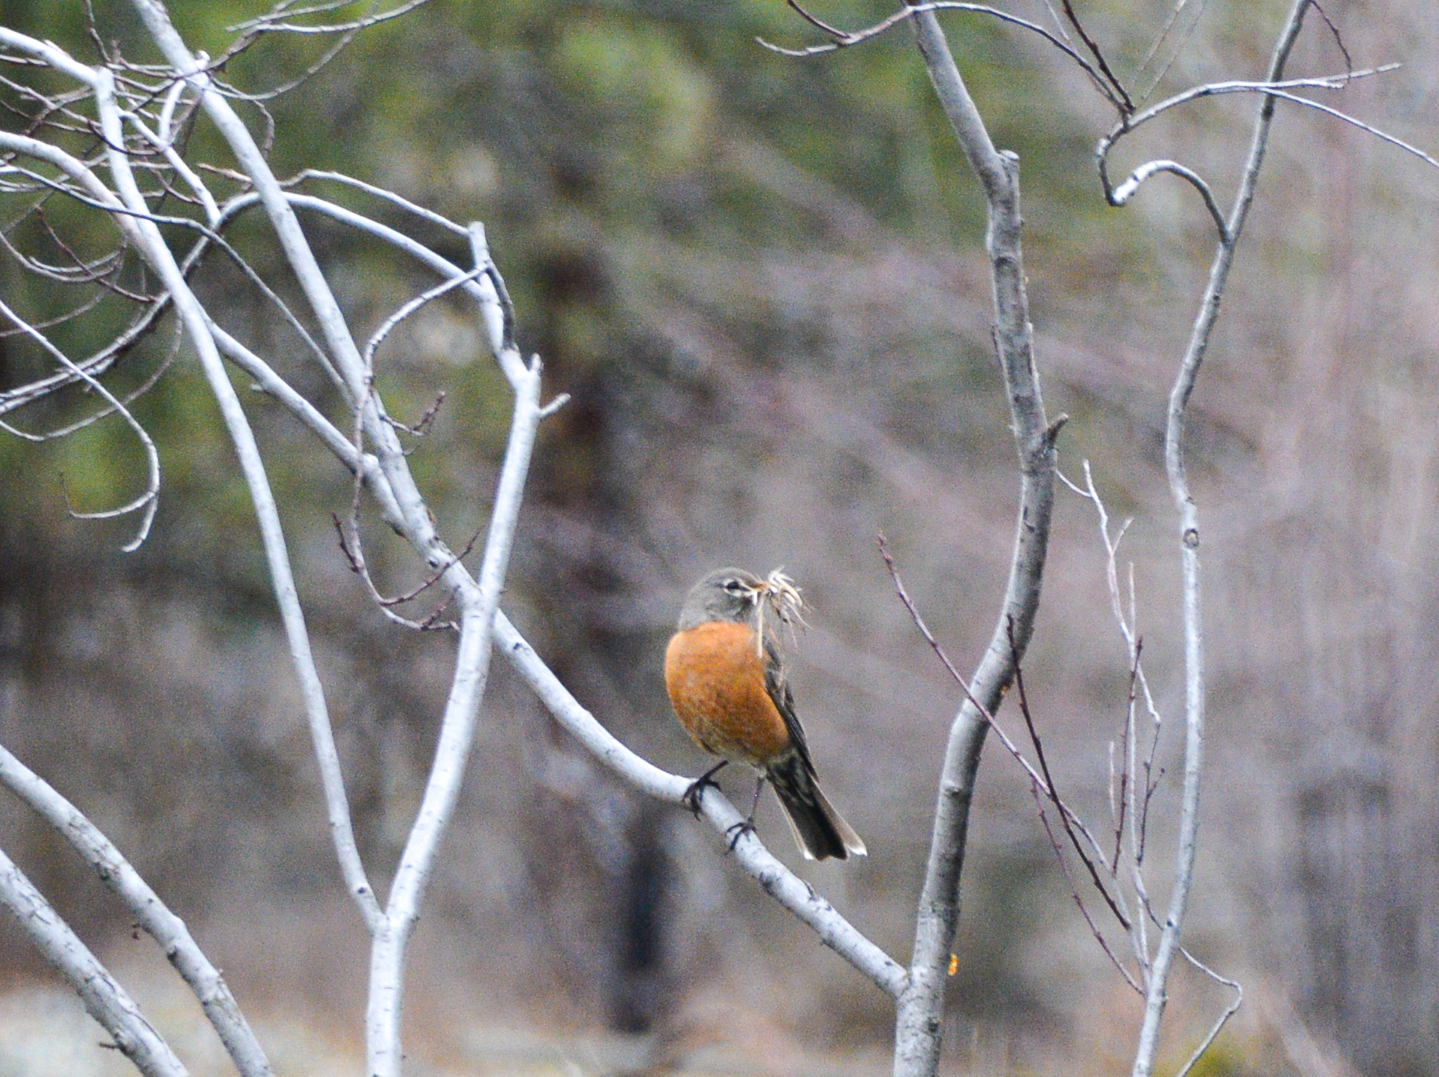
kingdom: Animalia
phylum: Chordata
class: Aves
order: Passeriformes
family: Turdidae
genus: Turdus
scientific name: Turdus migratorius
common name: American robin
